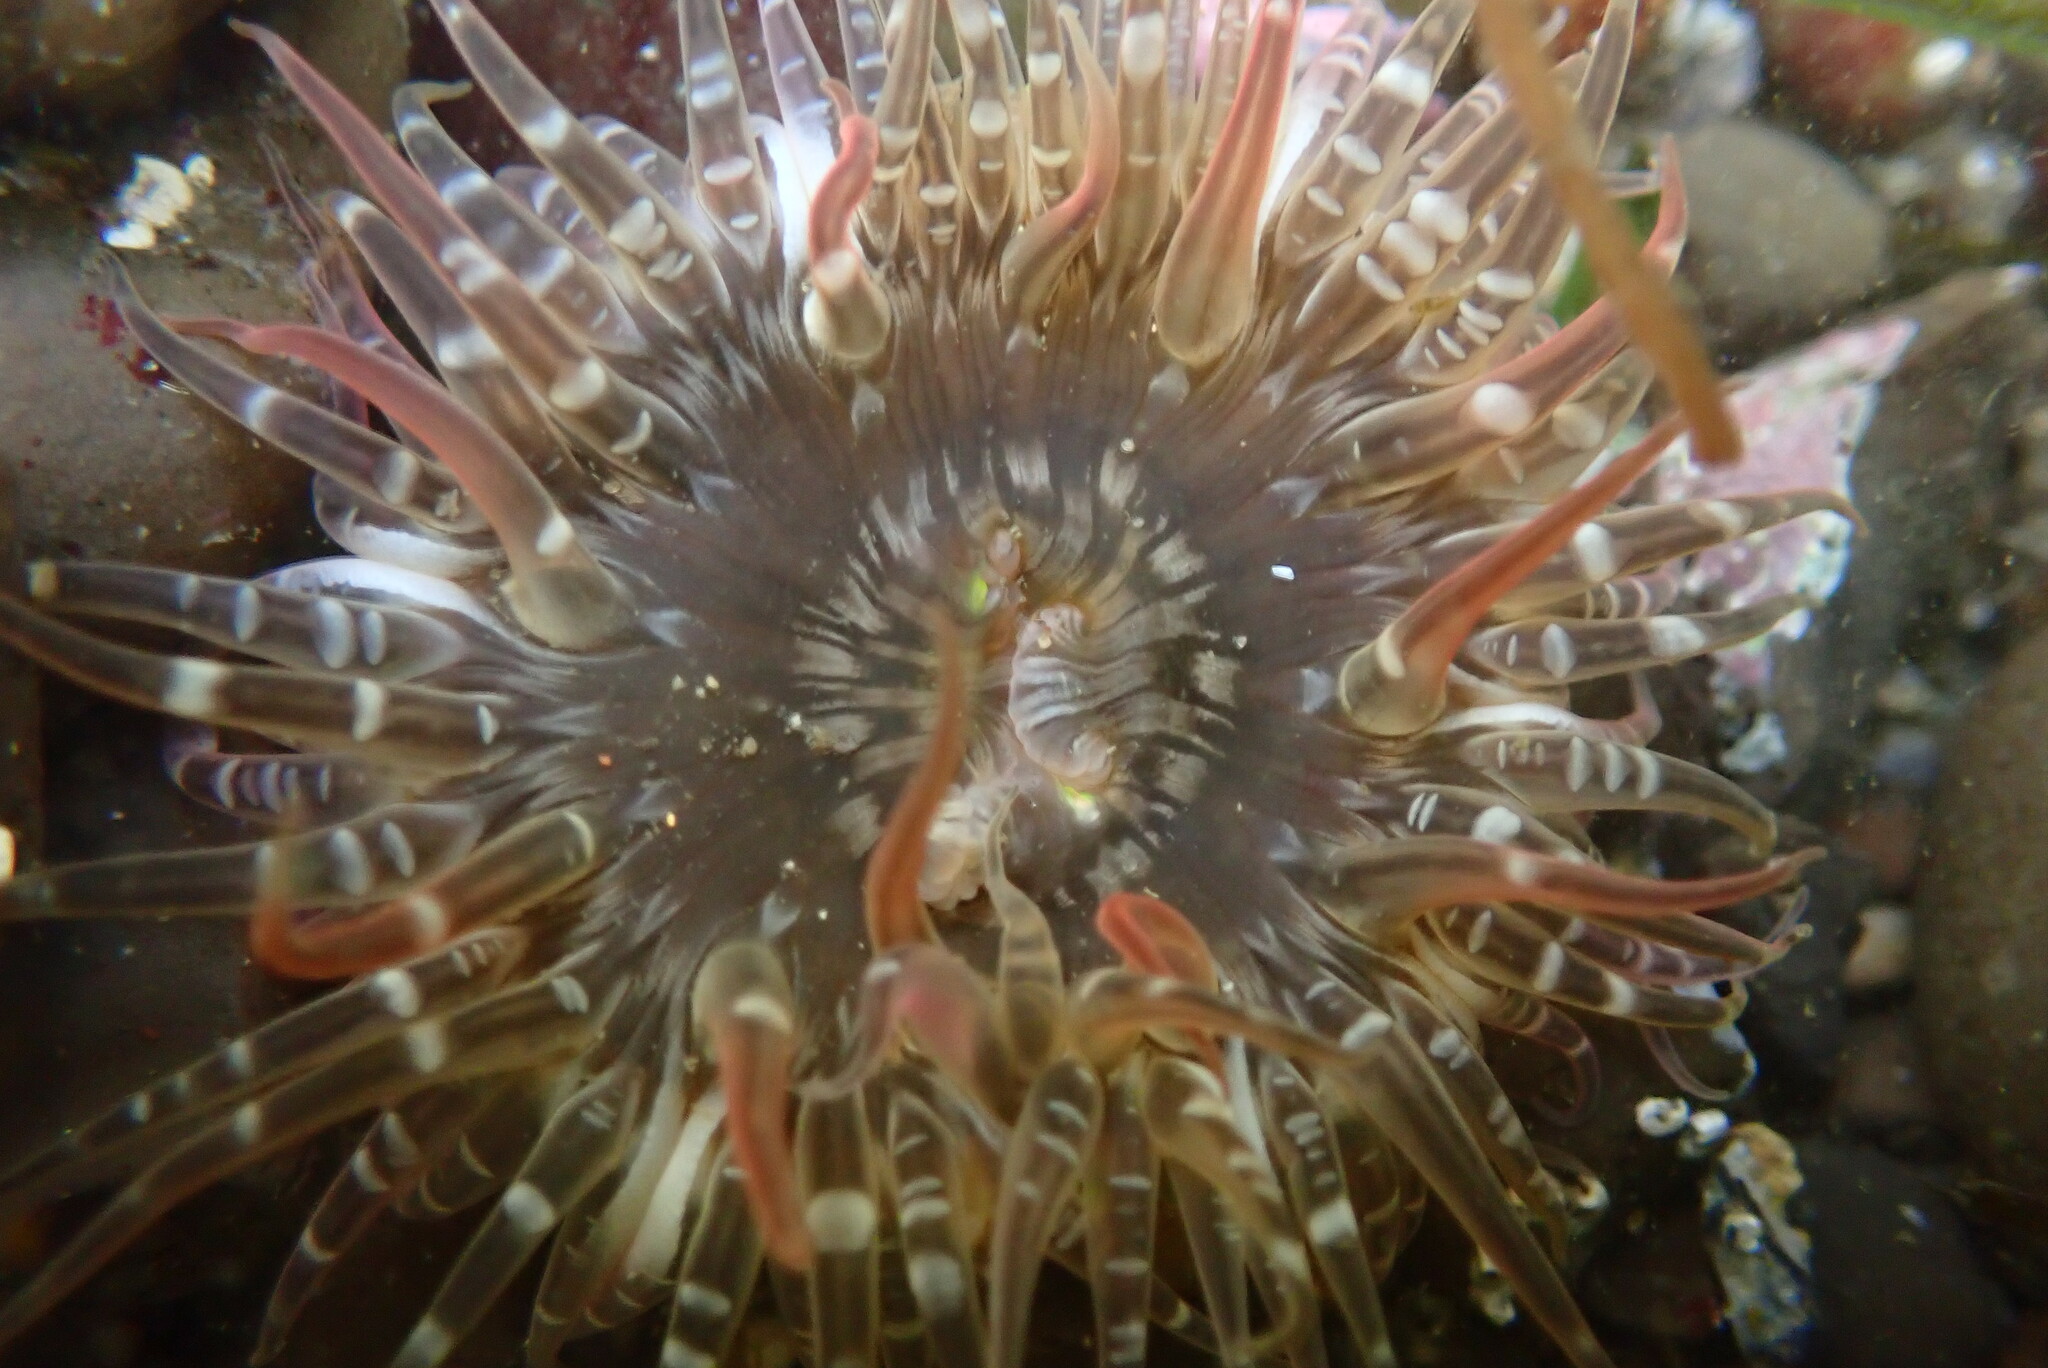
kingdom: Animalia
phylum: Cnidaria
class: Anthozoa
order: Actiniaria
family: Actiniidae
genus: Anthopleura
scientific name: Anthopleura artemisia
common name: Buried sea anemone
